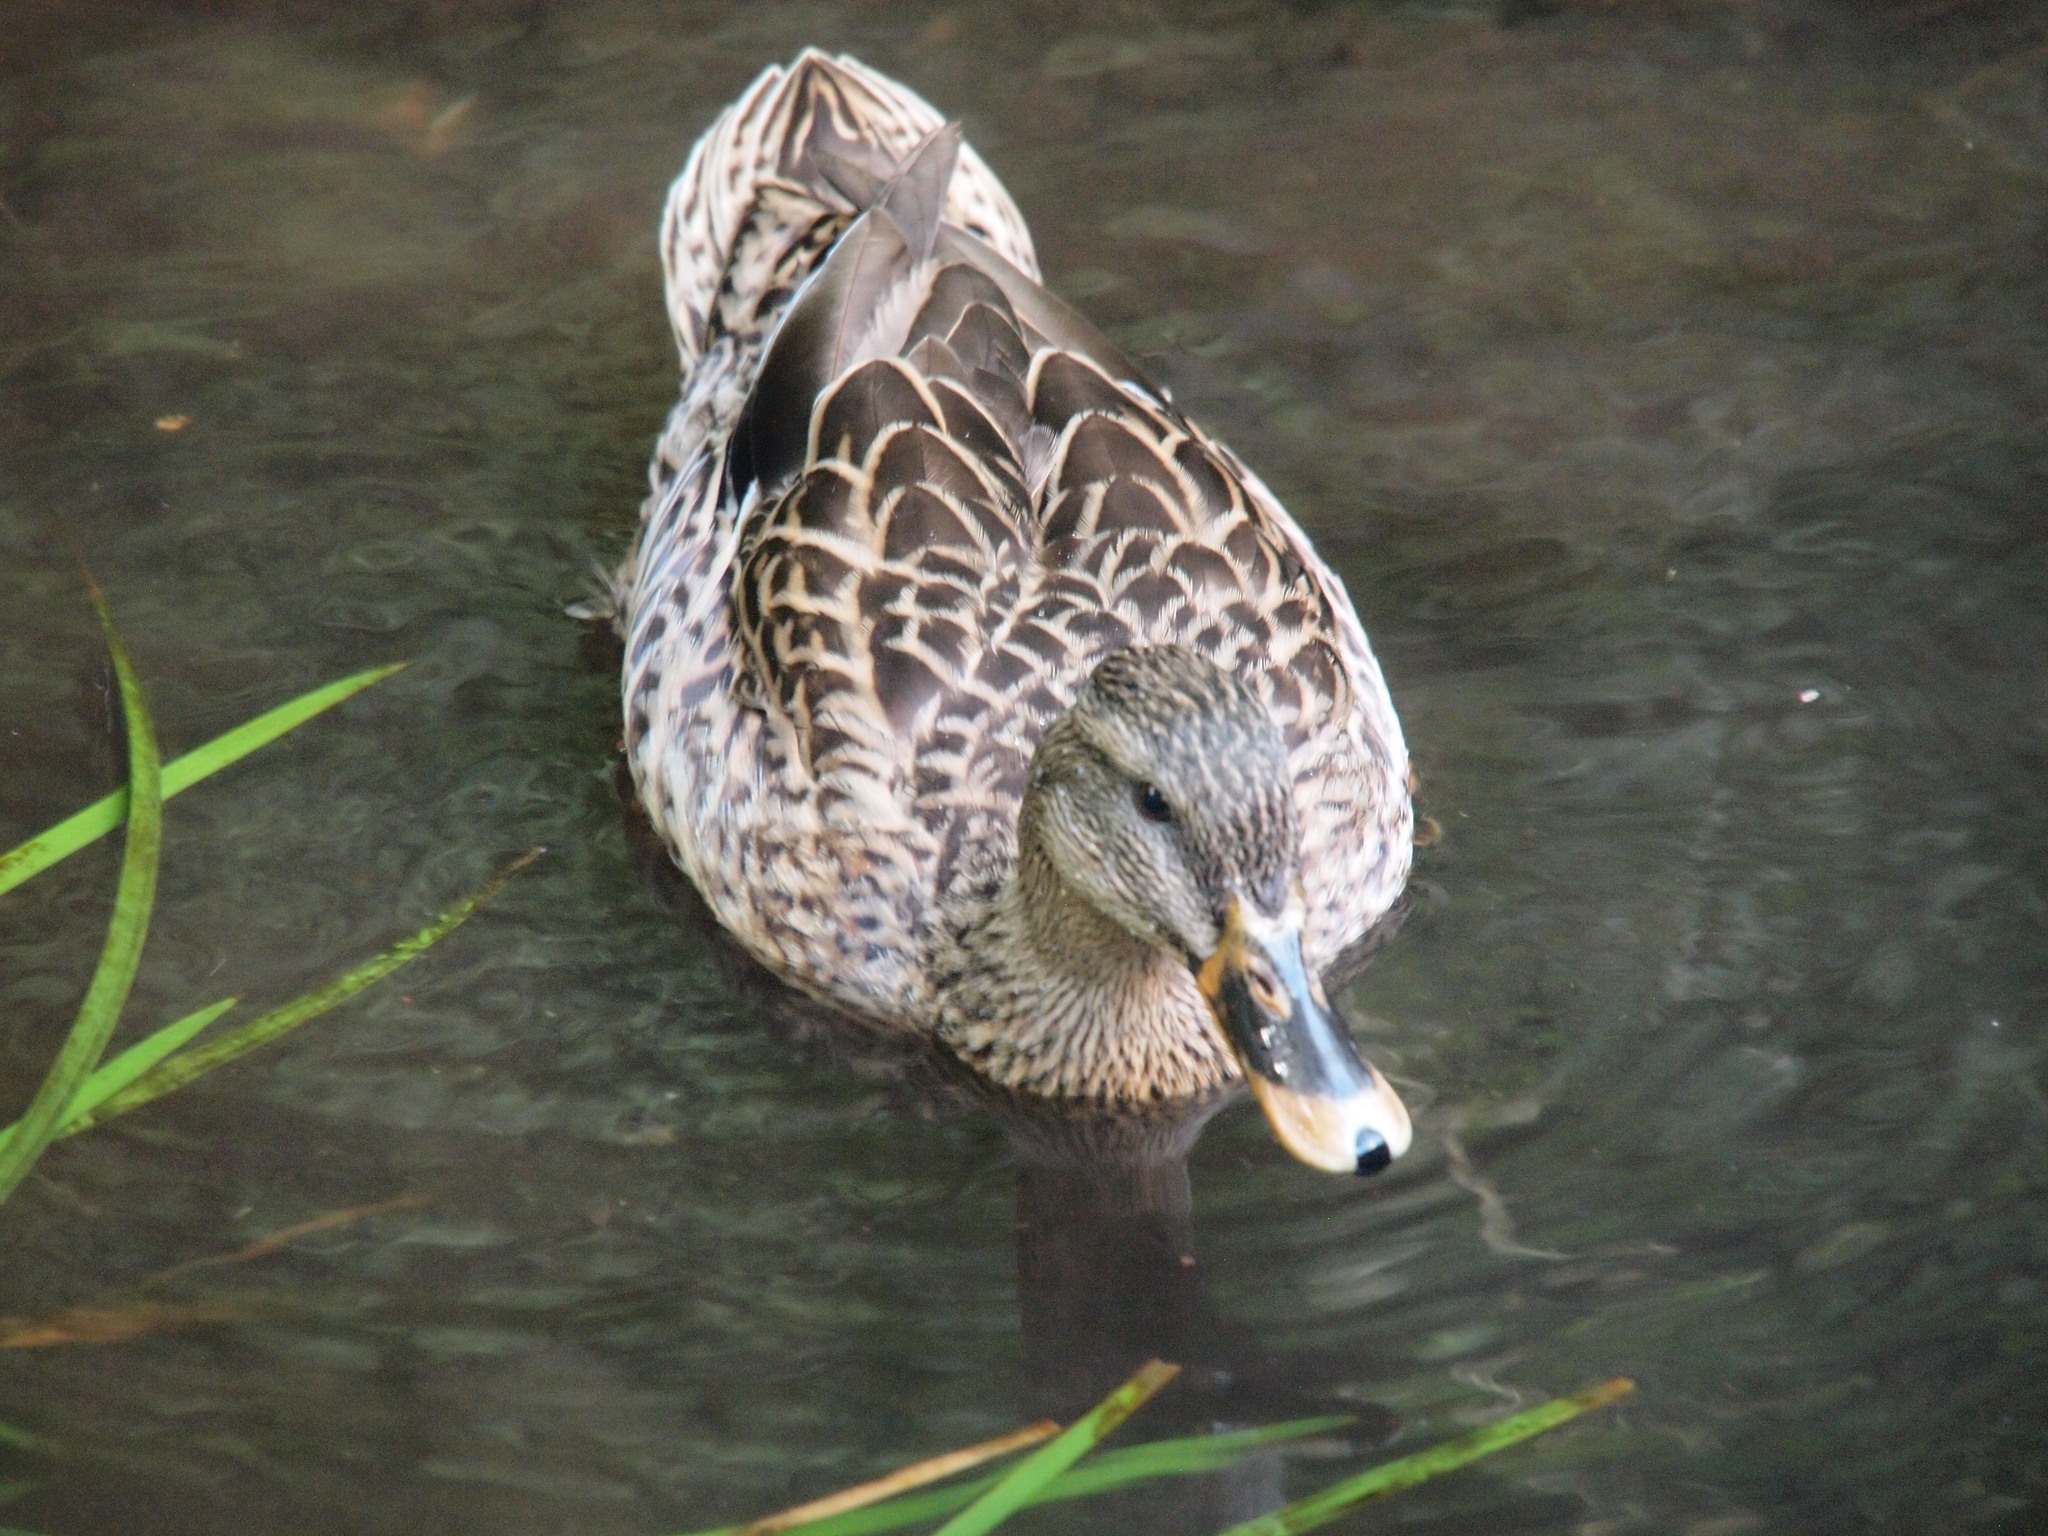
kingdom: Animalia
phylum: Chordata
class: Aves
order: Anseriformes
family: Anatidae
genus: Anas
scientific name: Anas
